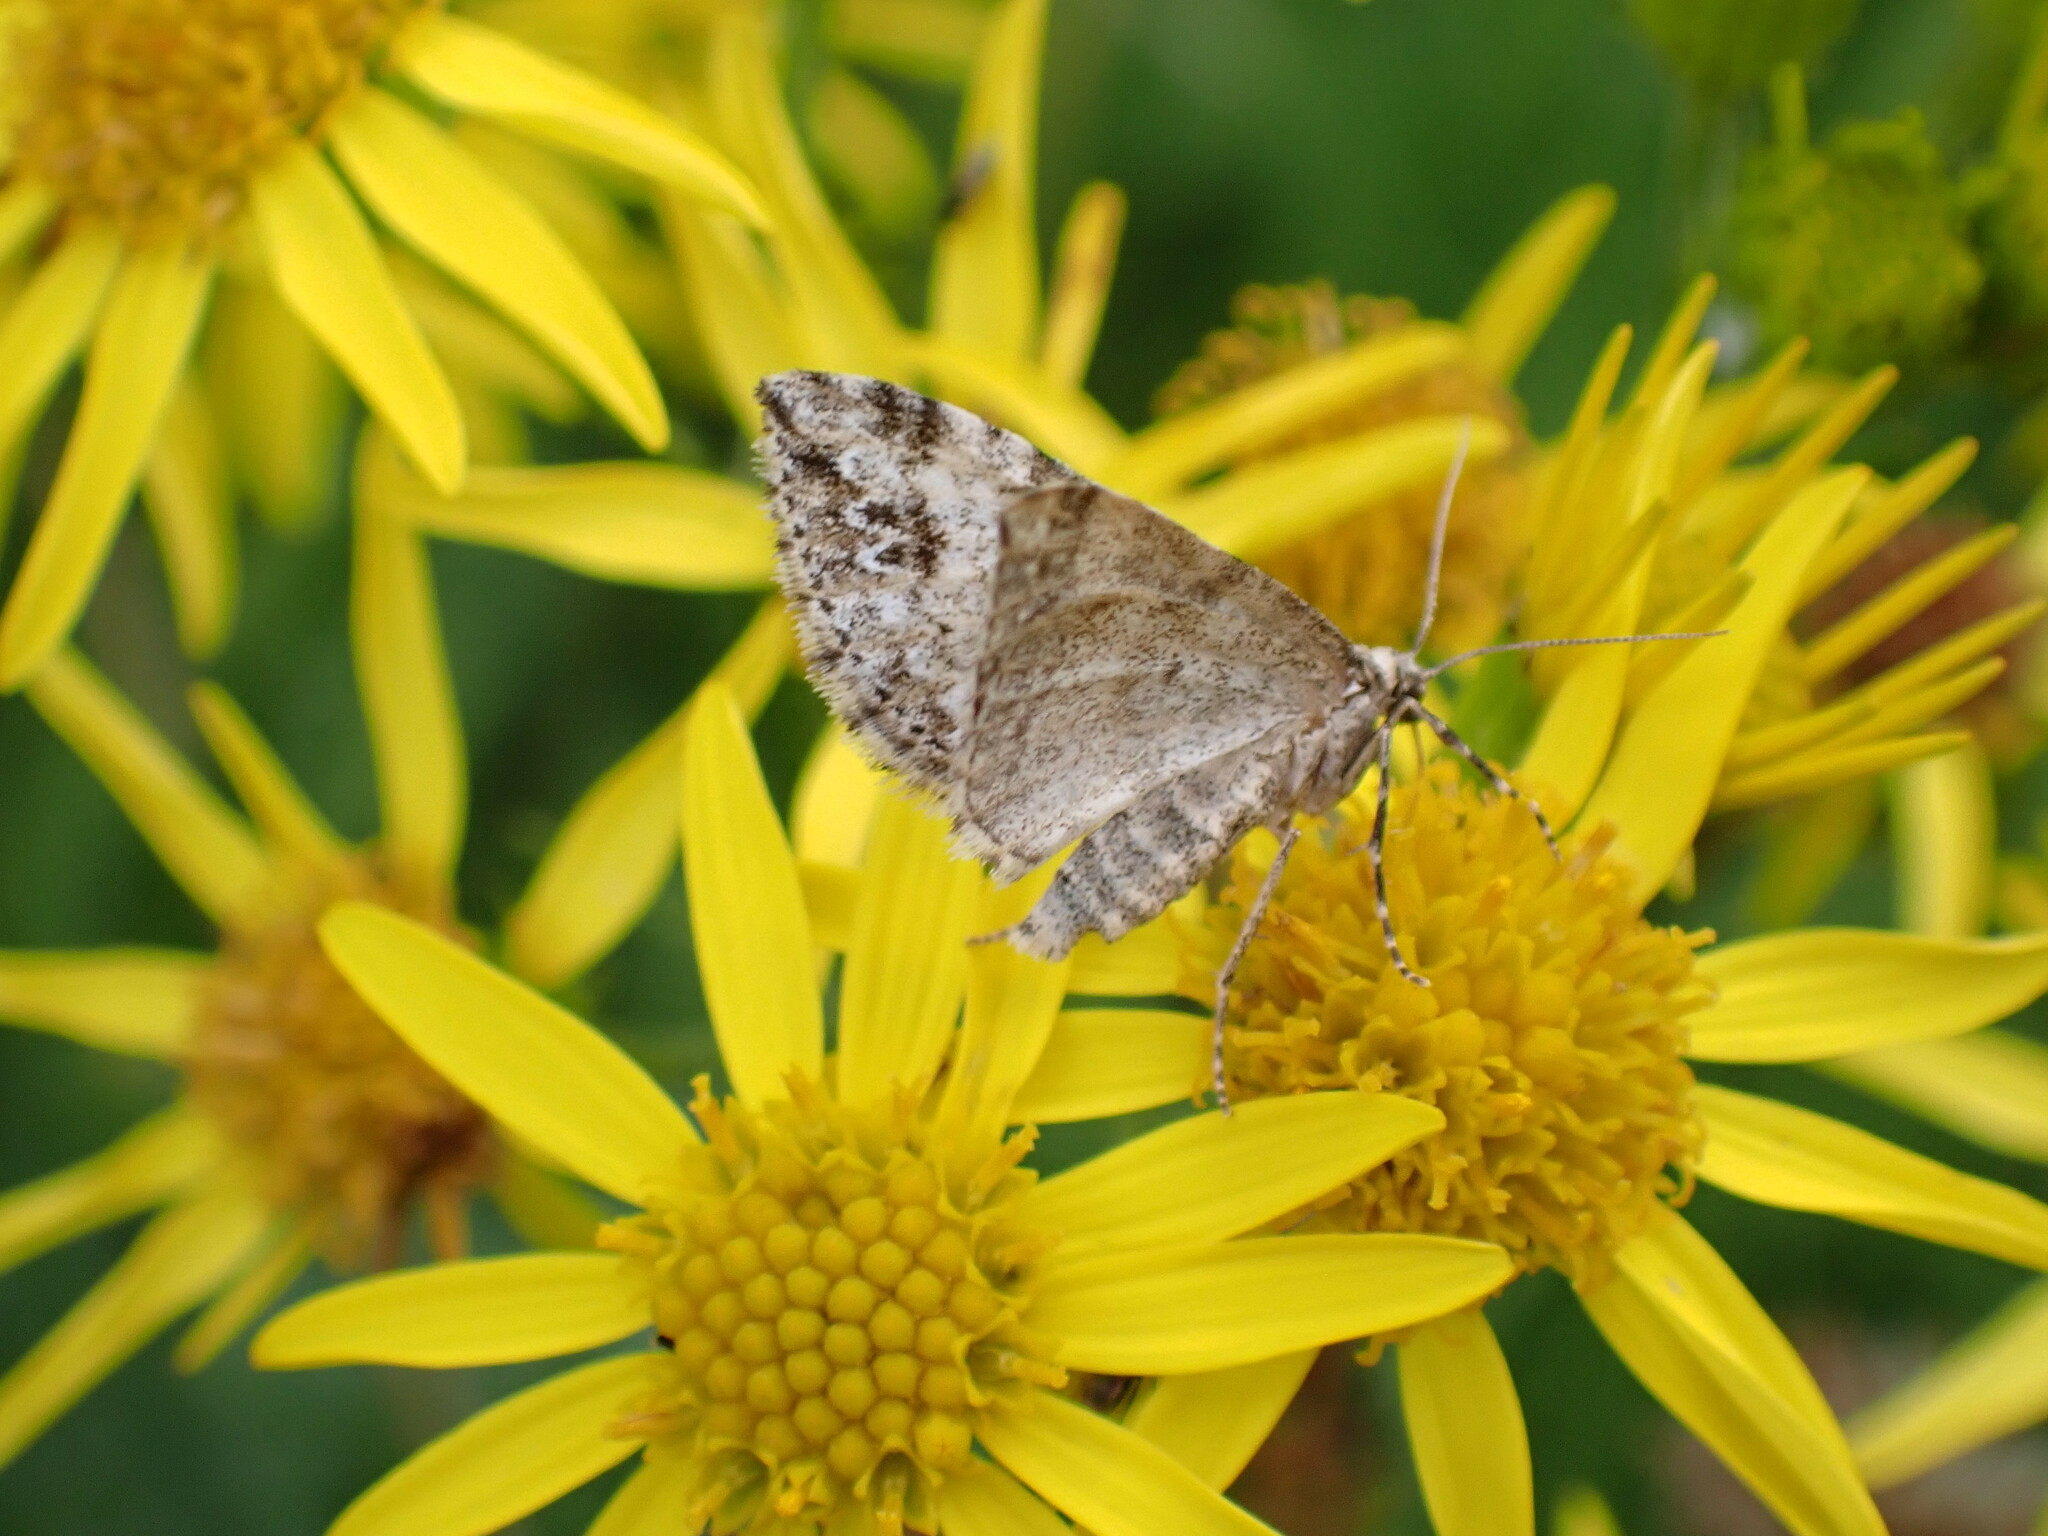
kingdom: Animalia
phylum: Arthropoda
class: Insecta
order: Lepidoptera
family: Geometridae
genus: Perizoma
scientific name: Perizoma didymata
